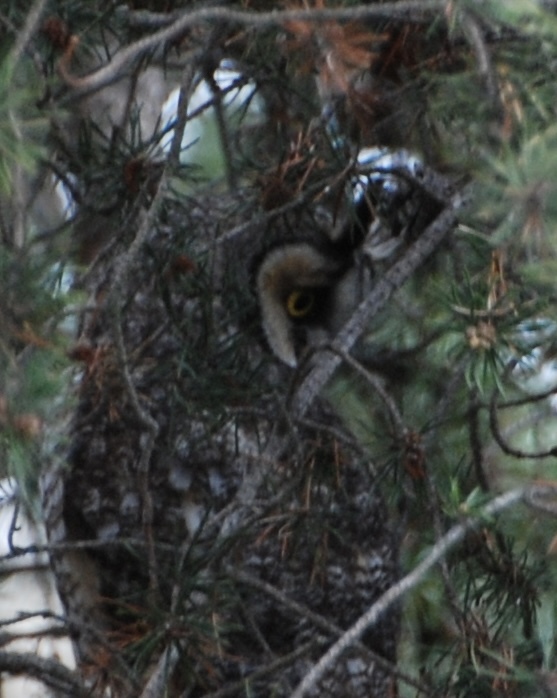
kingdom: Animalia
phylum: Chordata
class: Aves
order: Strigiformes
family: Strigidae
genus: Asio
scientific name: Asio otus
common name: Long-eared owl
